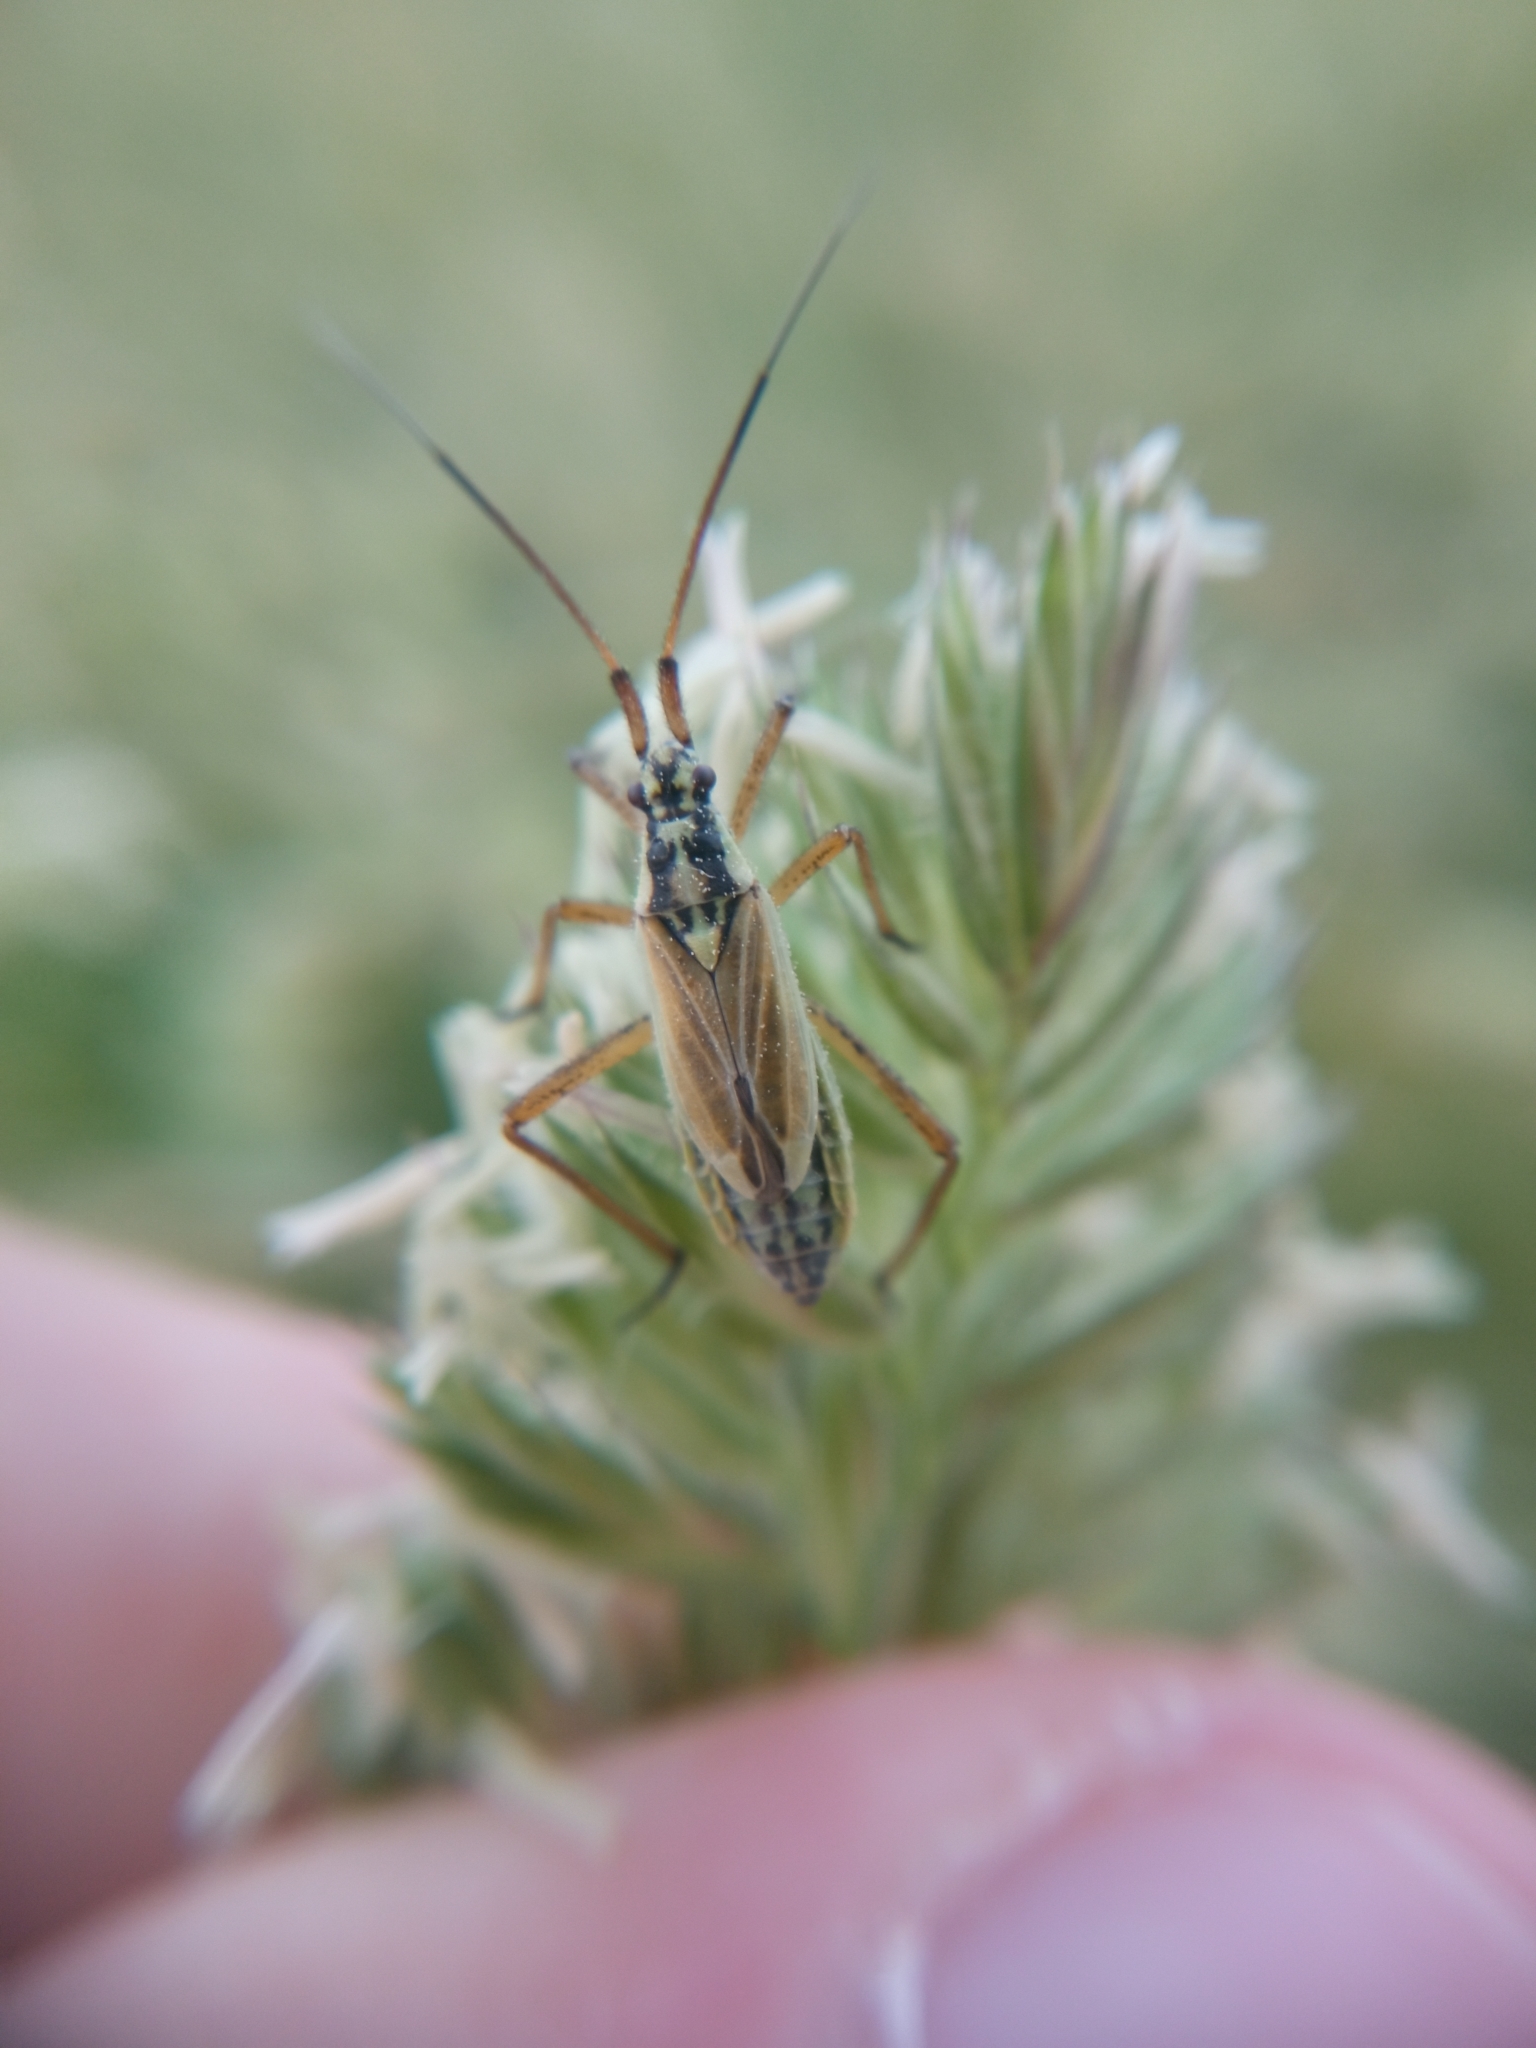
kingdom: Animalia
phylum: Arthropoda
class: Insecta
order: Hemiptera
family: Miridae
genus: Leptopterna
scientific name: Leptopterna dolabrata
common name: Meadow plant bug
